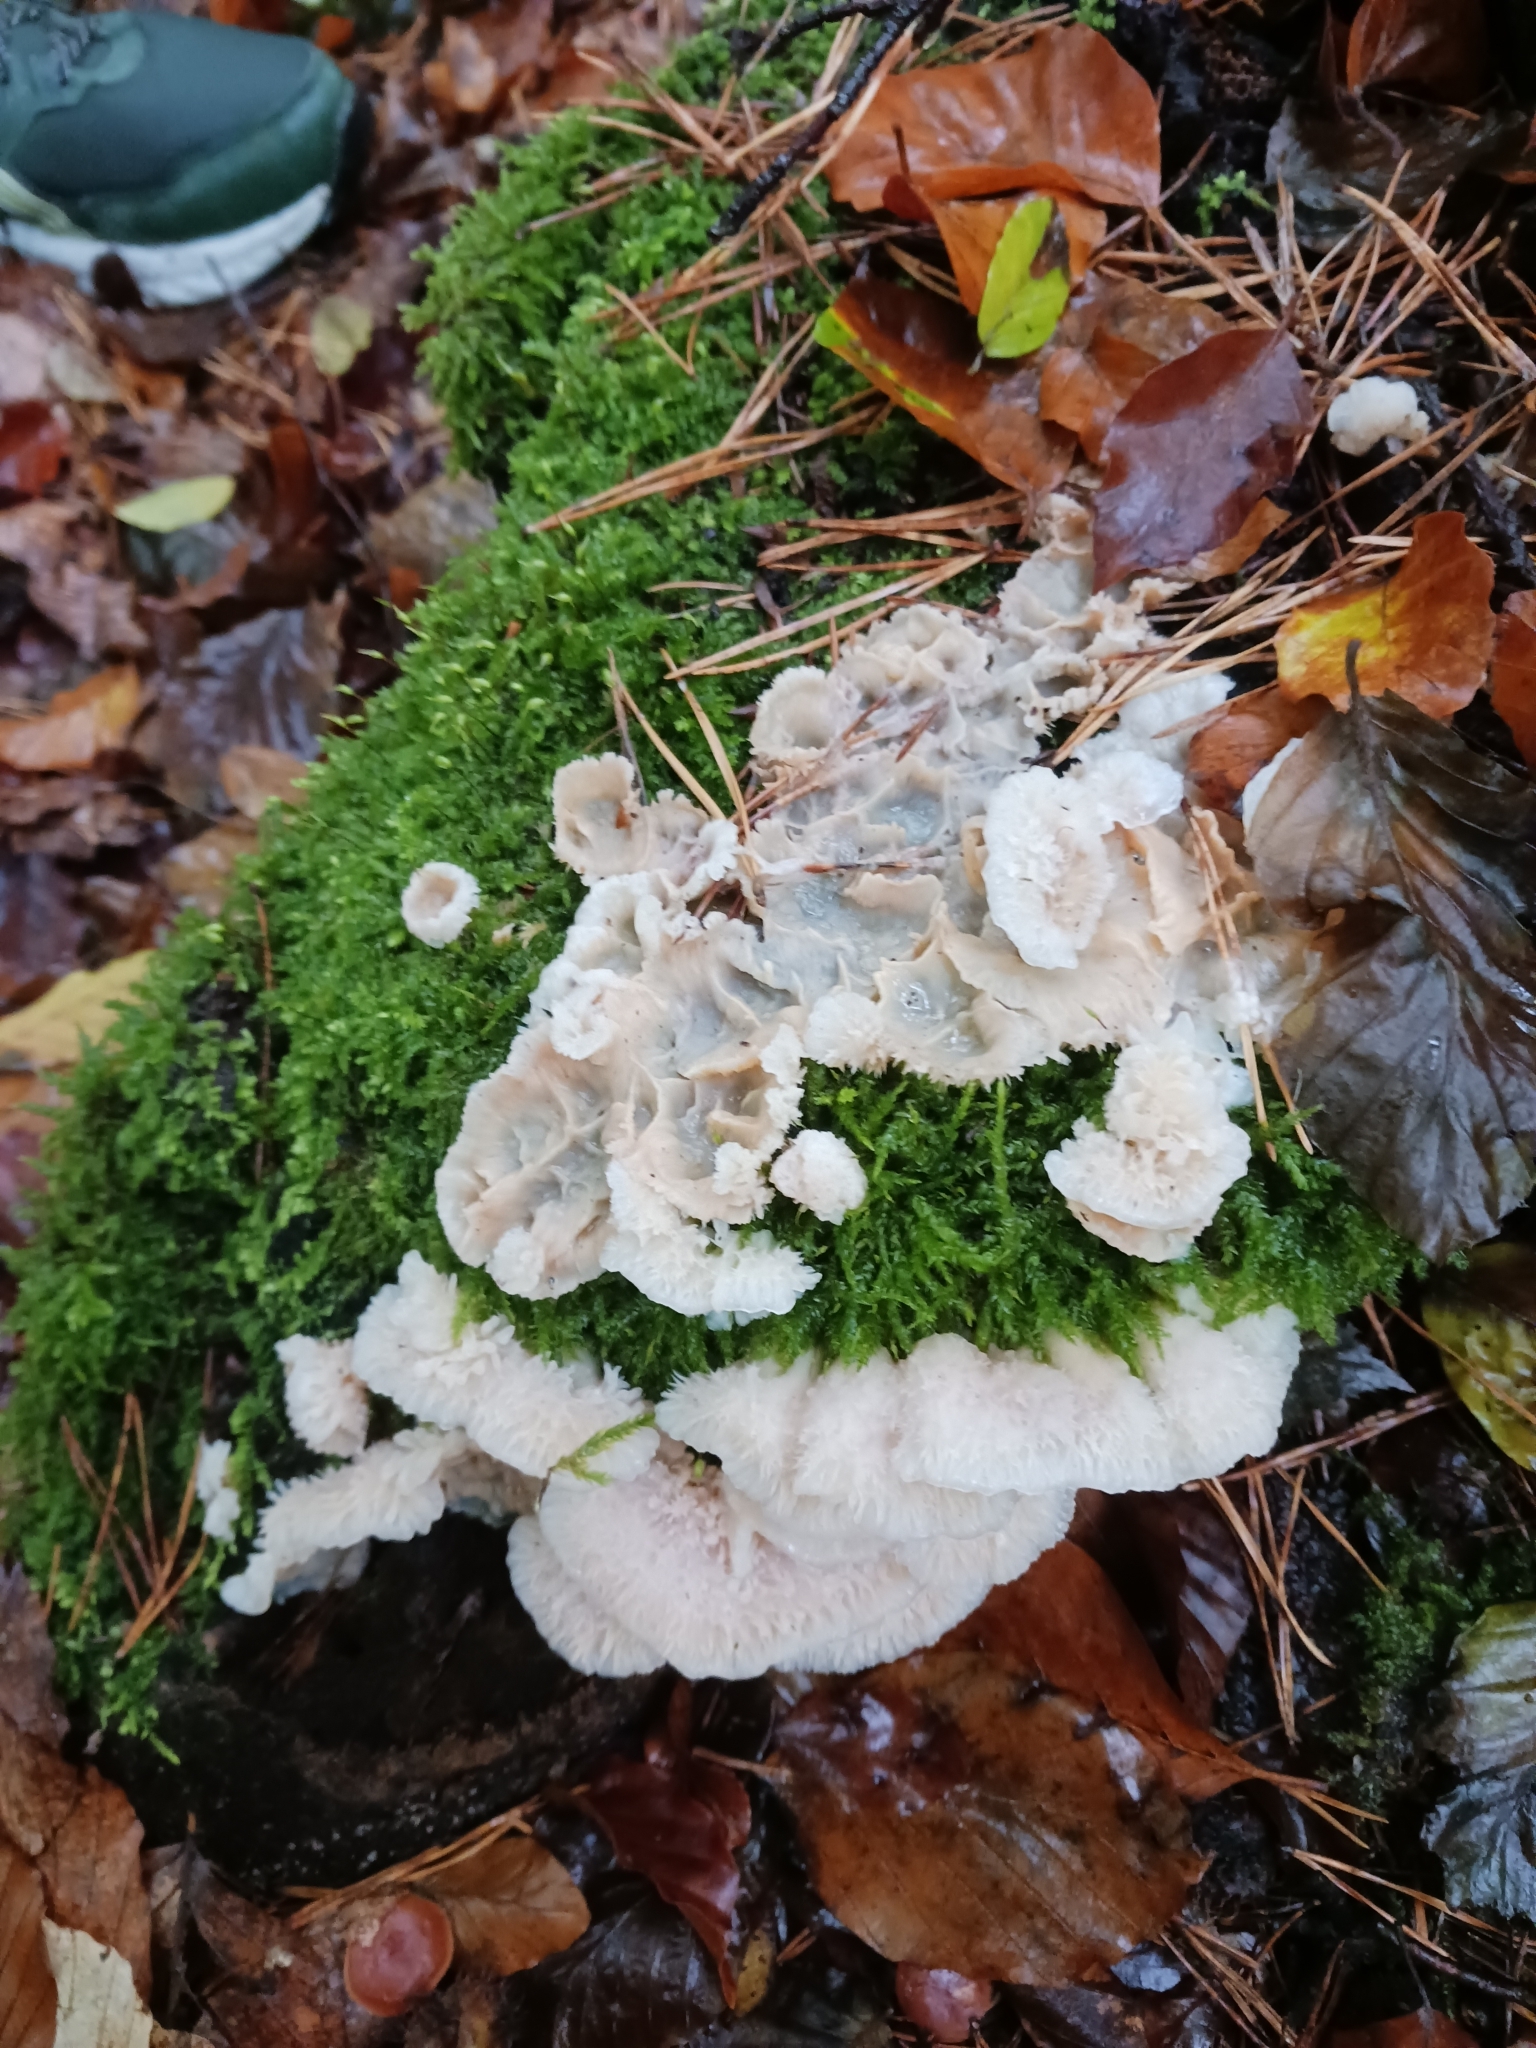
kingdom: Fungi
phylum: Basidiomycota
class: Agaricomycetes
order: Polyporales
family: Meruliaceae
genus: Phlebia
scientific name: Phlebia tremellosa
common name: Jelly rot
